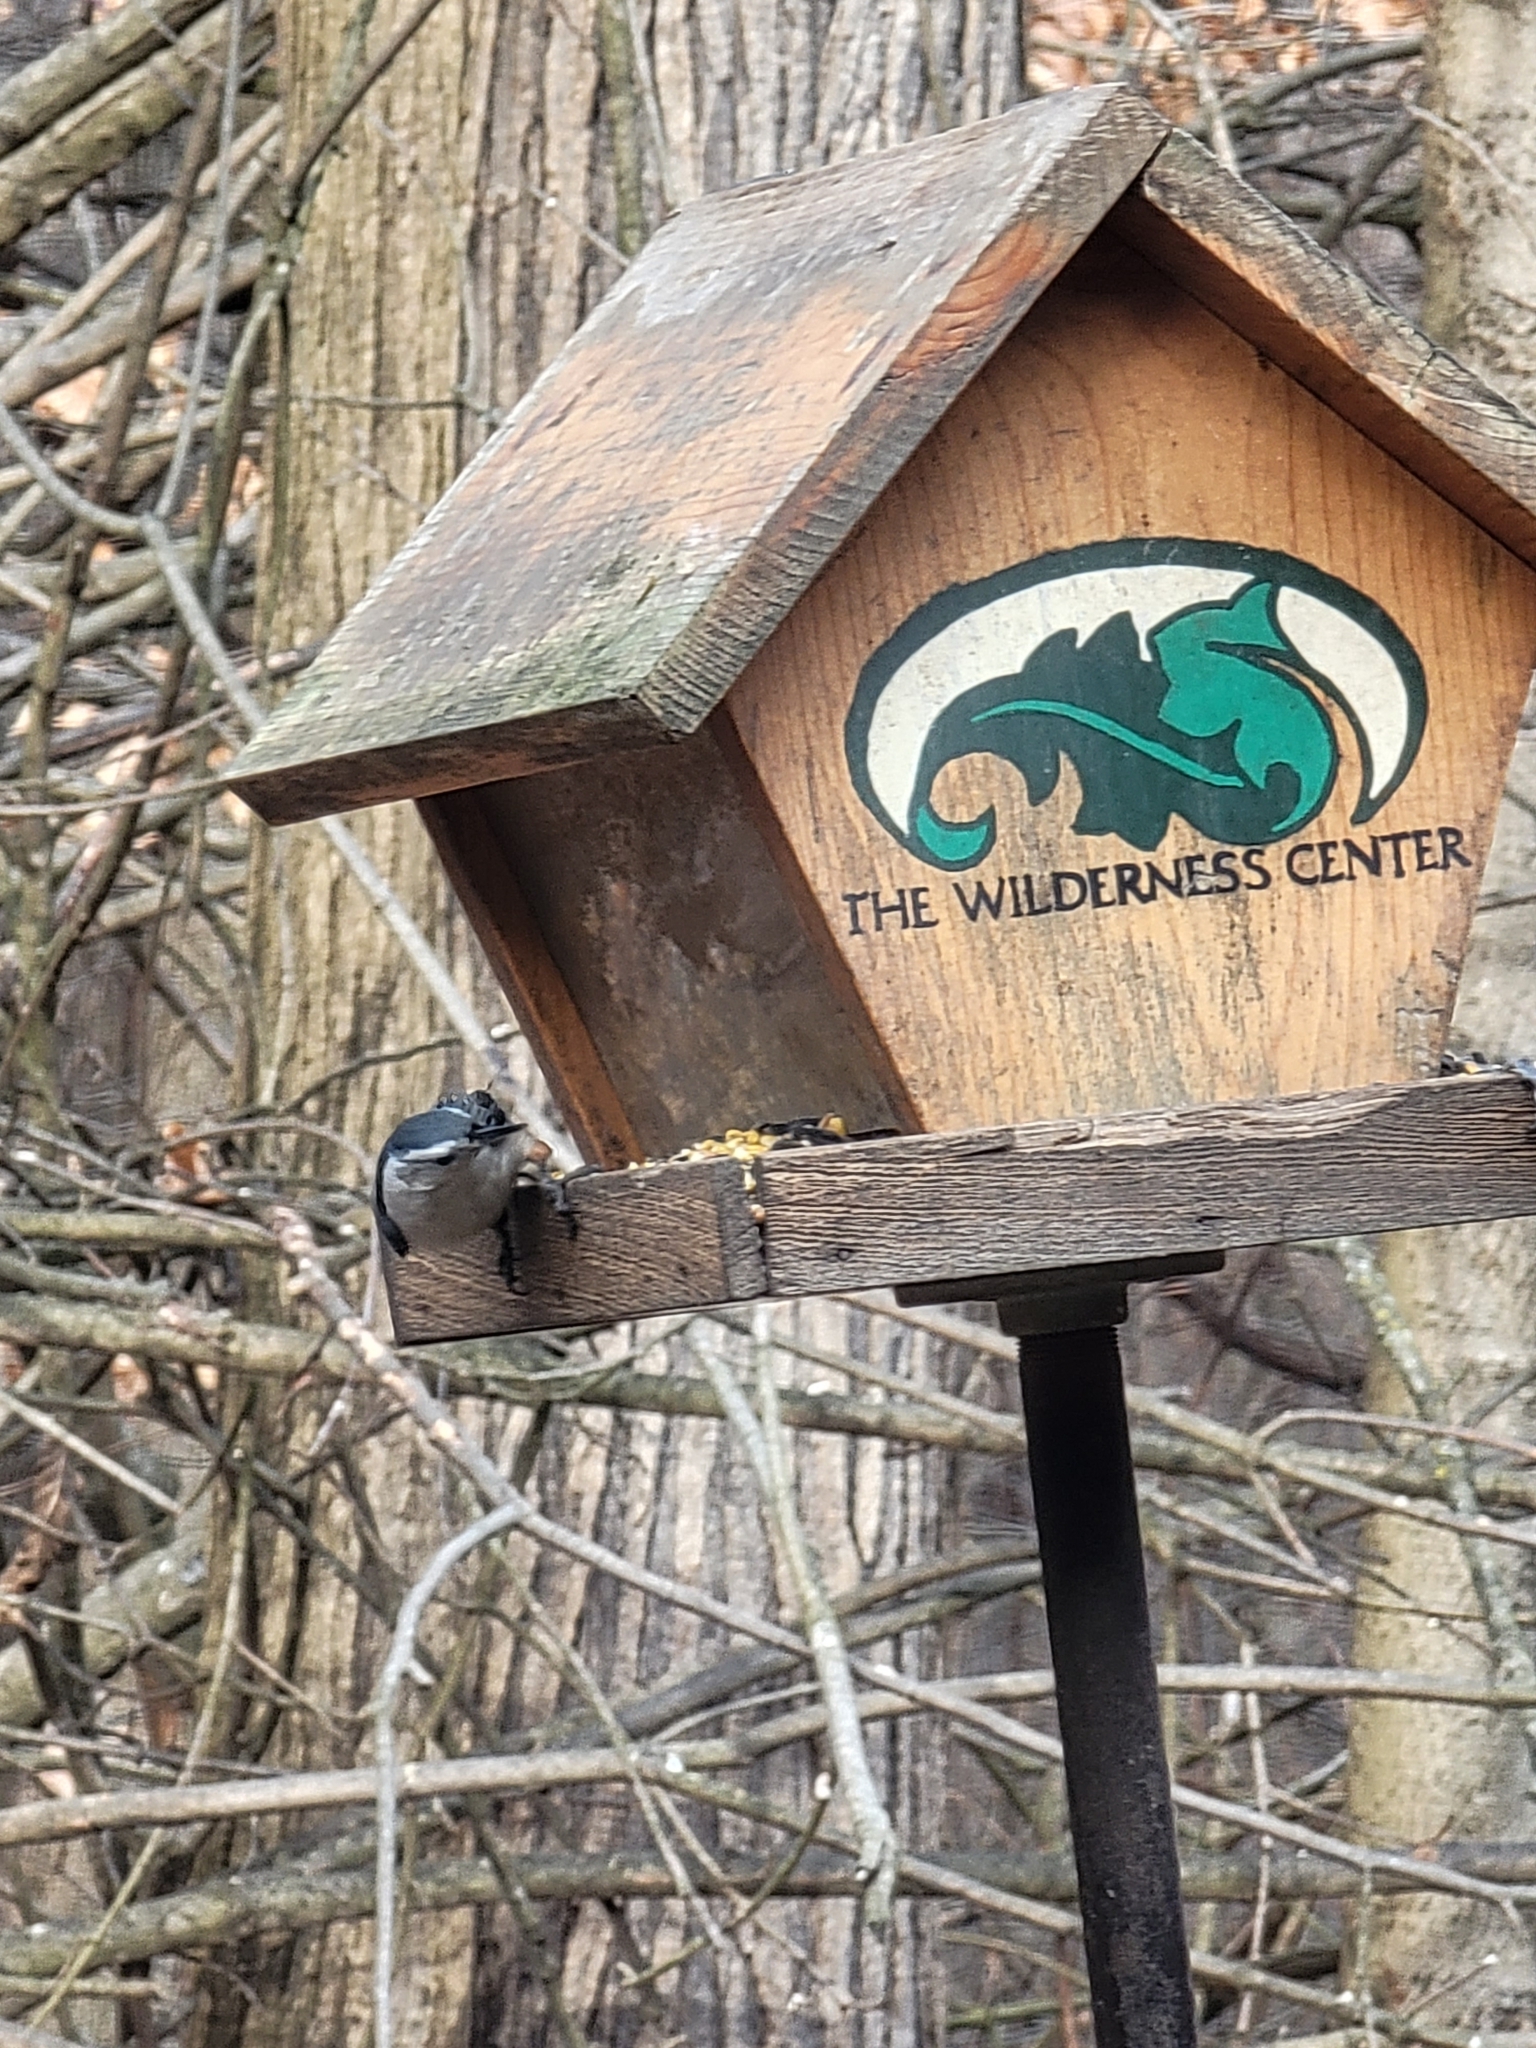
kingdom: Animalia
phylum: Chordata
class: Aves
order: Passeriformes
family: Sittidae
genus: Sitta
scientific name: Sitta carolinensis
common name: White-breasted nuthatch
